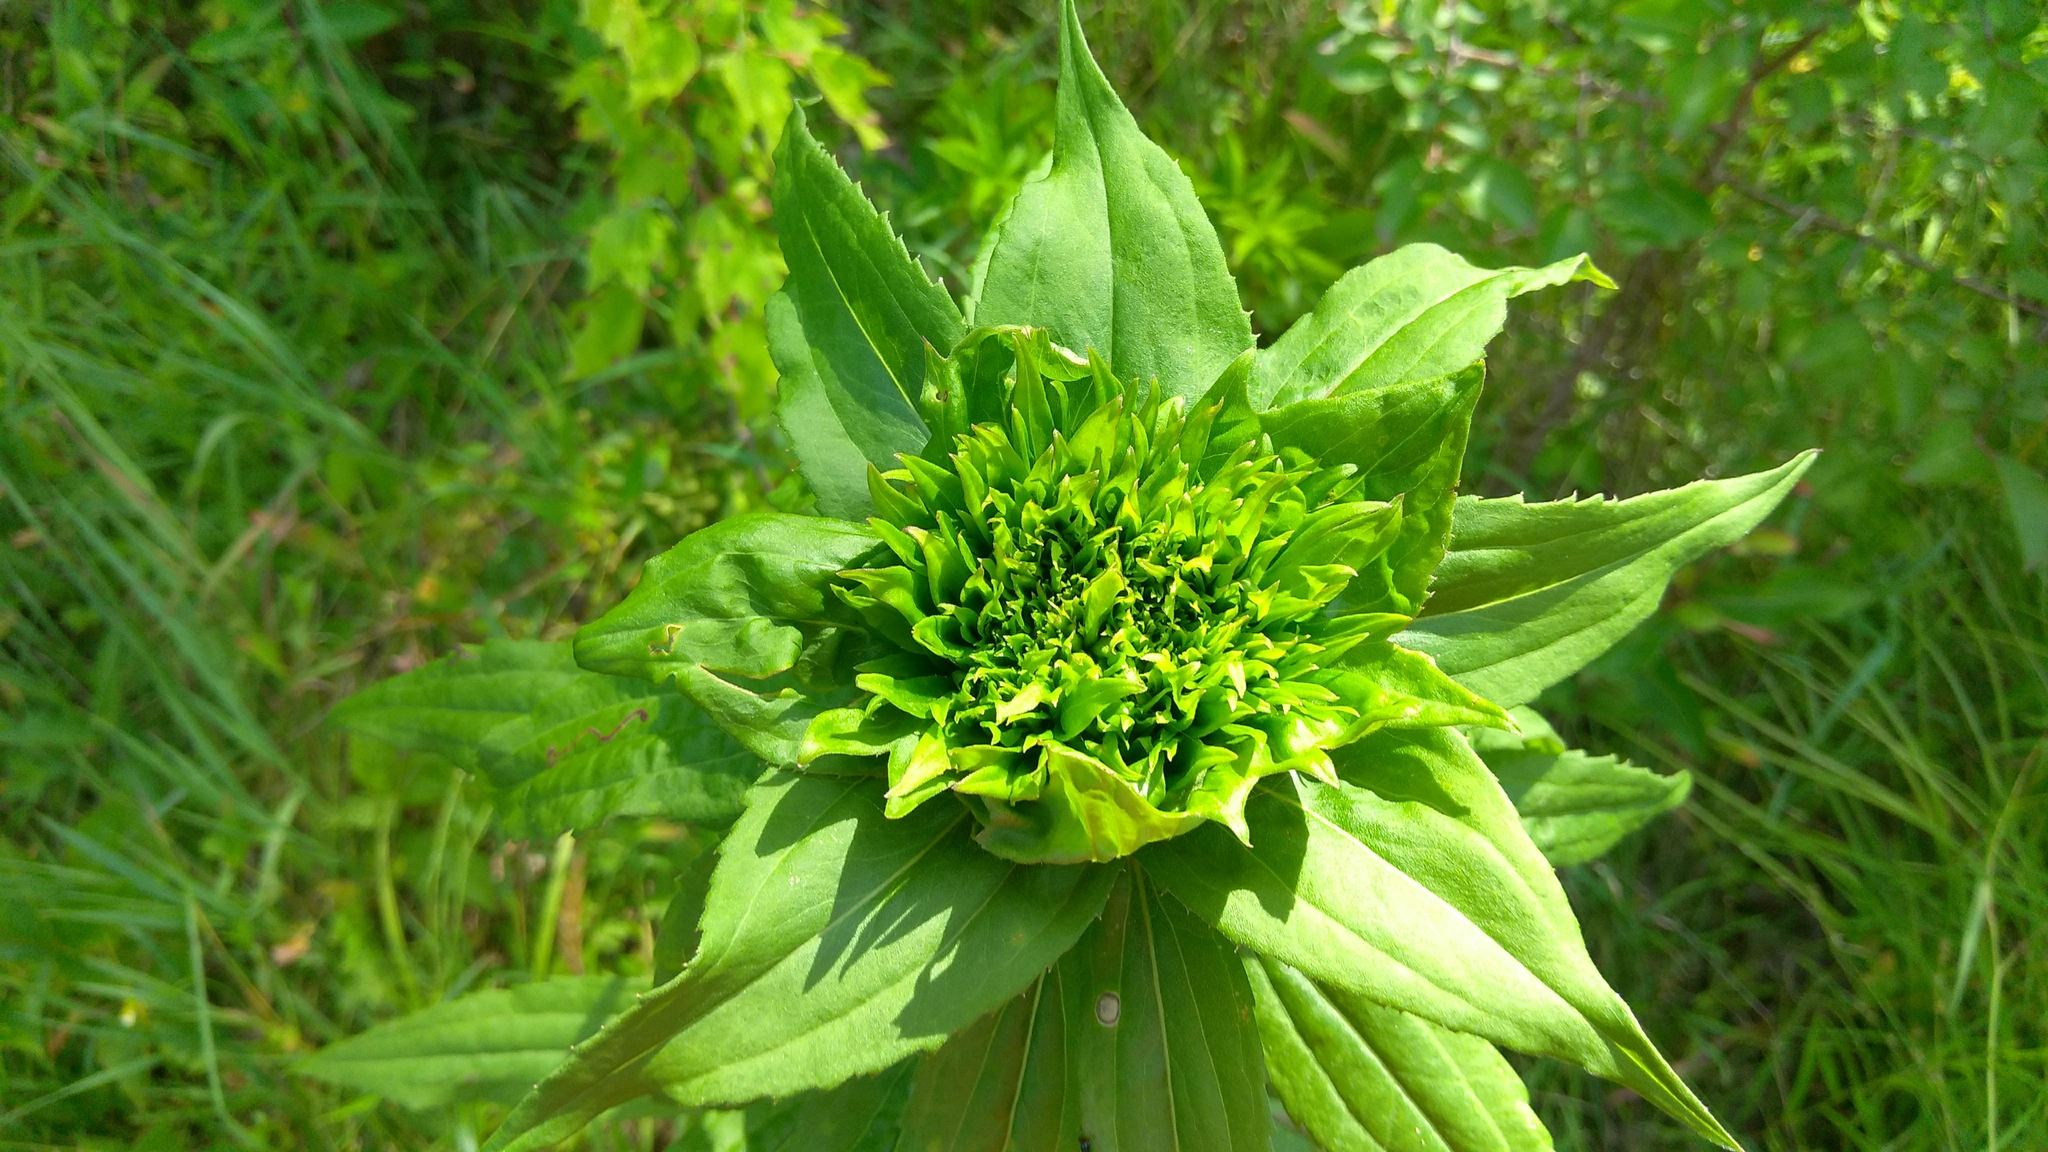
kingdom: Animalia
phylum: Arthropoda
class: Insecta
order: Diptera
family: Cecidomyiidae
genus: Rhopalomyia
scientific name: Rhopalomyia capitata
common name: Giant goldenrod bunch gall midge
